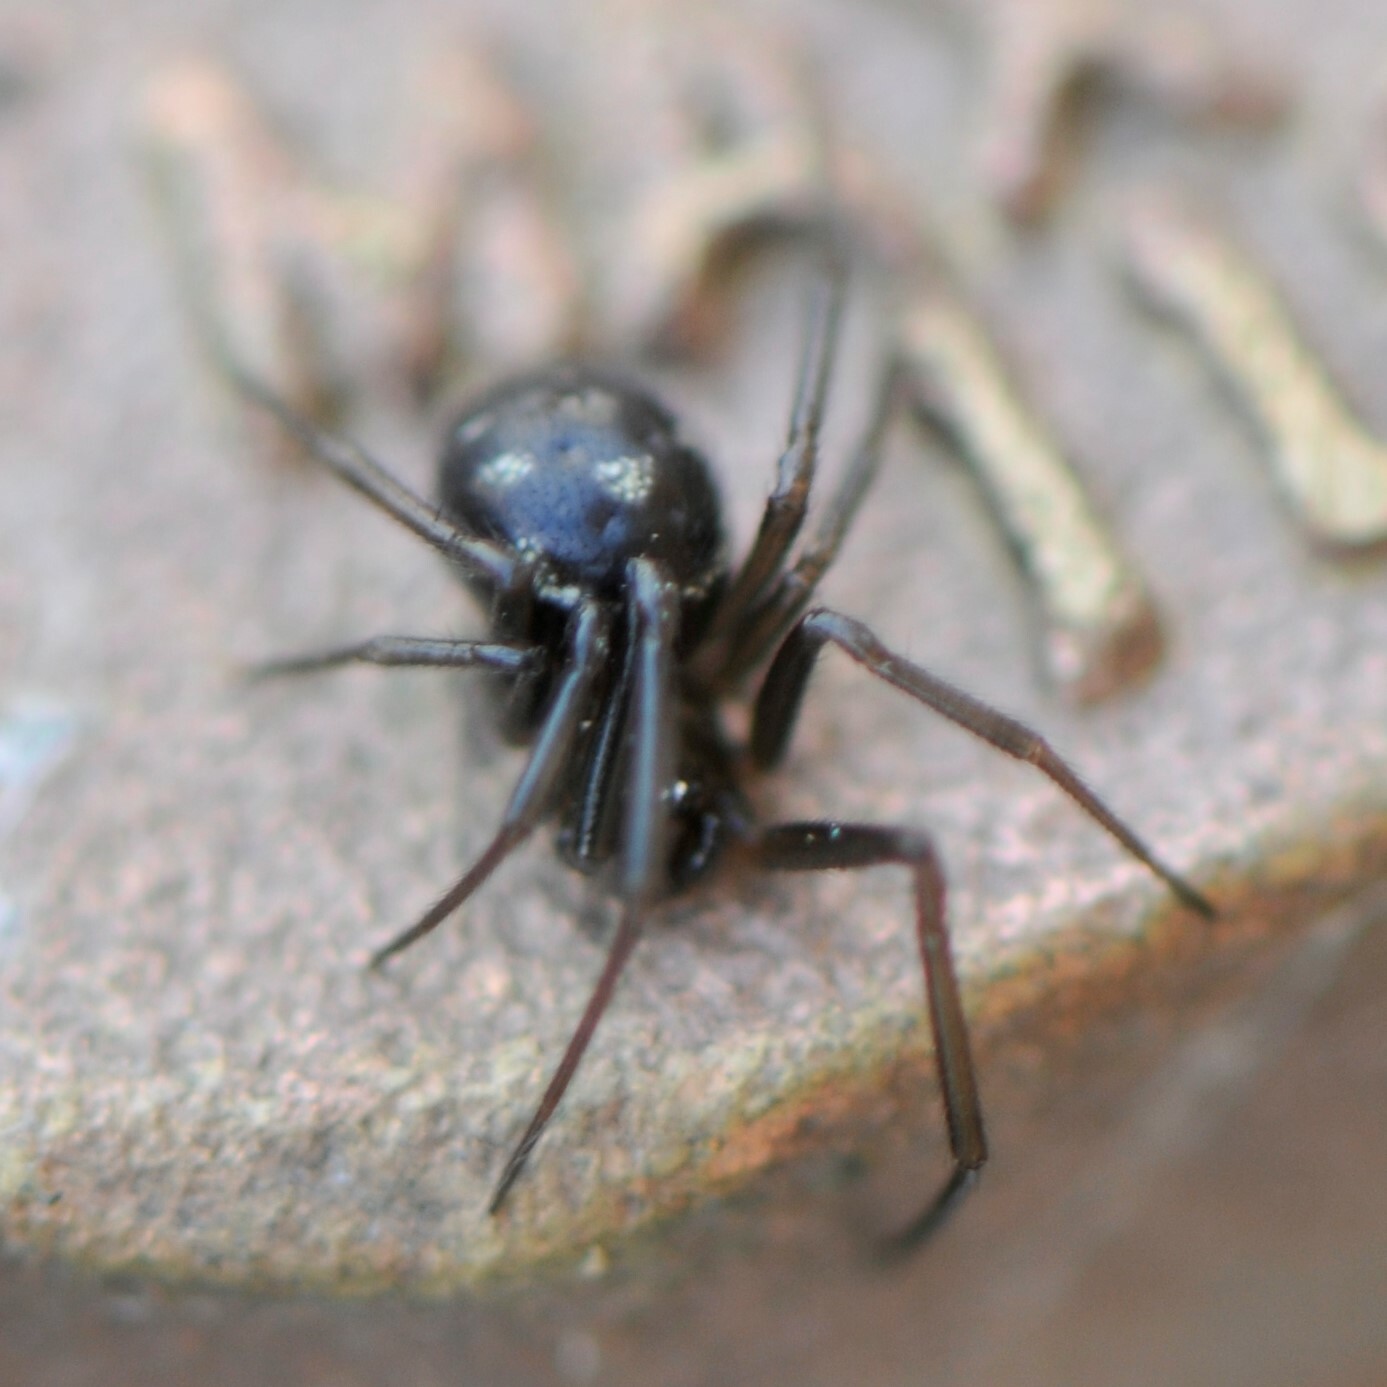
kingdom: Animalia
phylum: Arthropoda
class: Arachnida
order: Araneae
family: Theridiidae
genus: Steatoda
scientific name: Steatoda grossa
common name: False black widow
